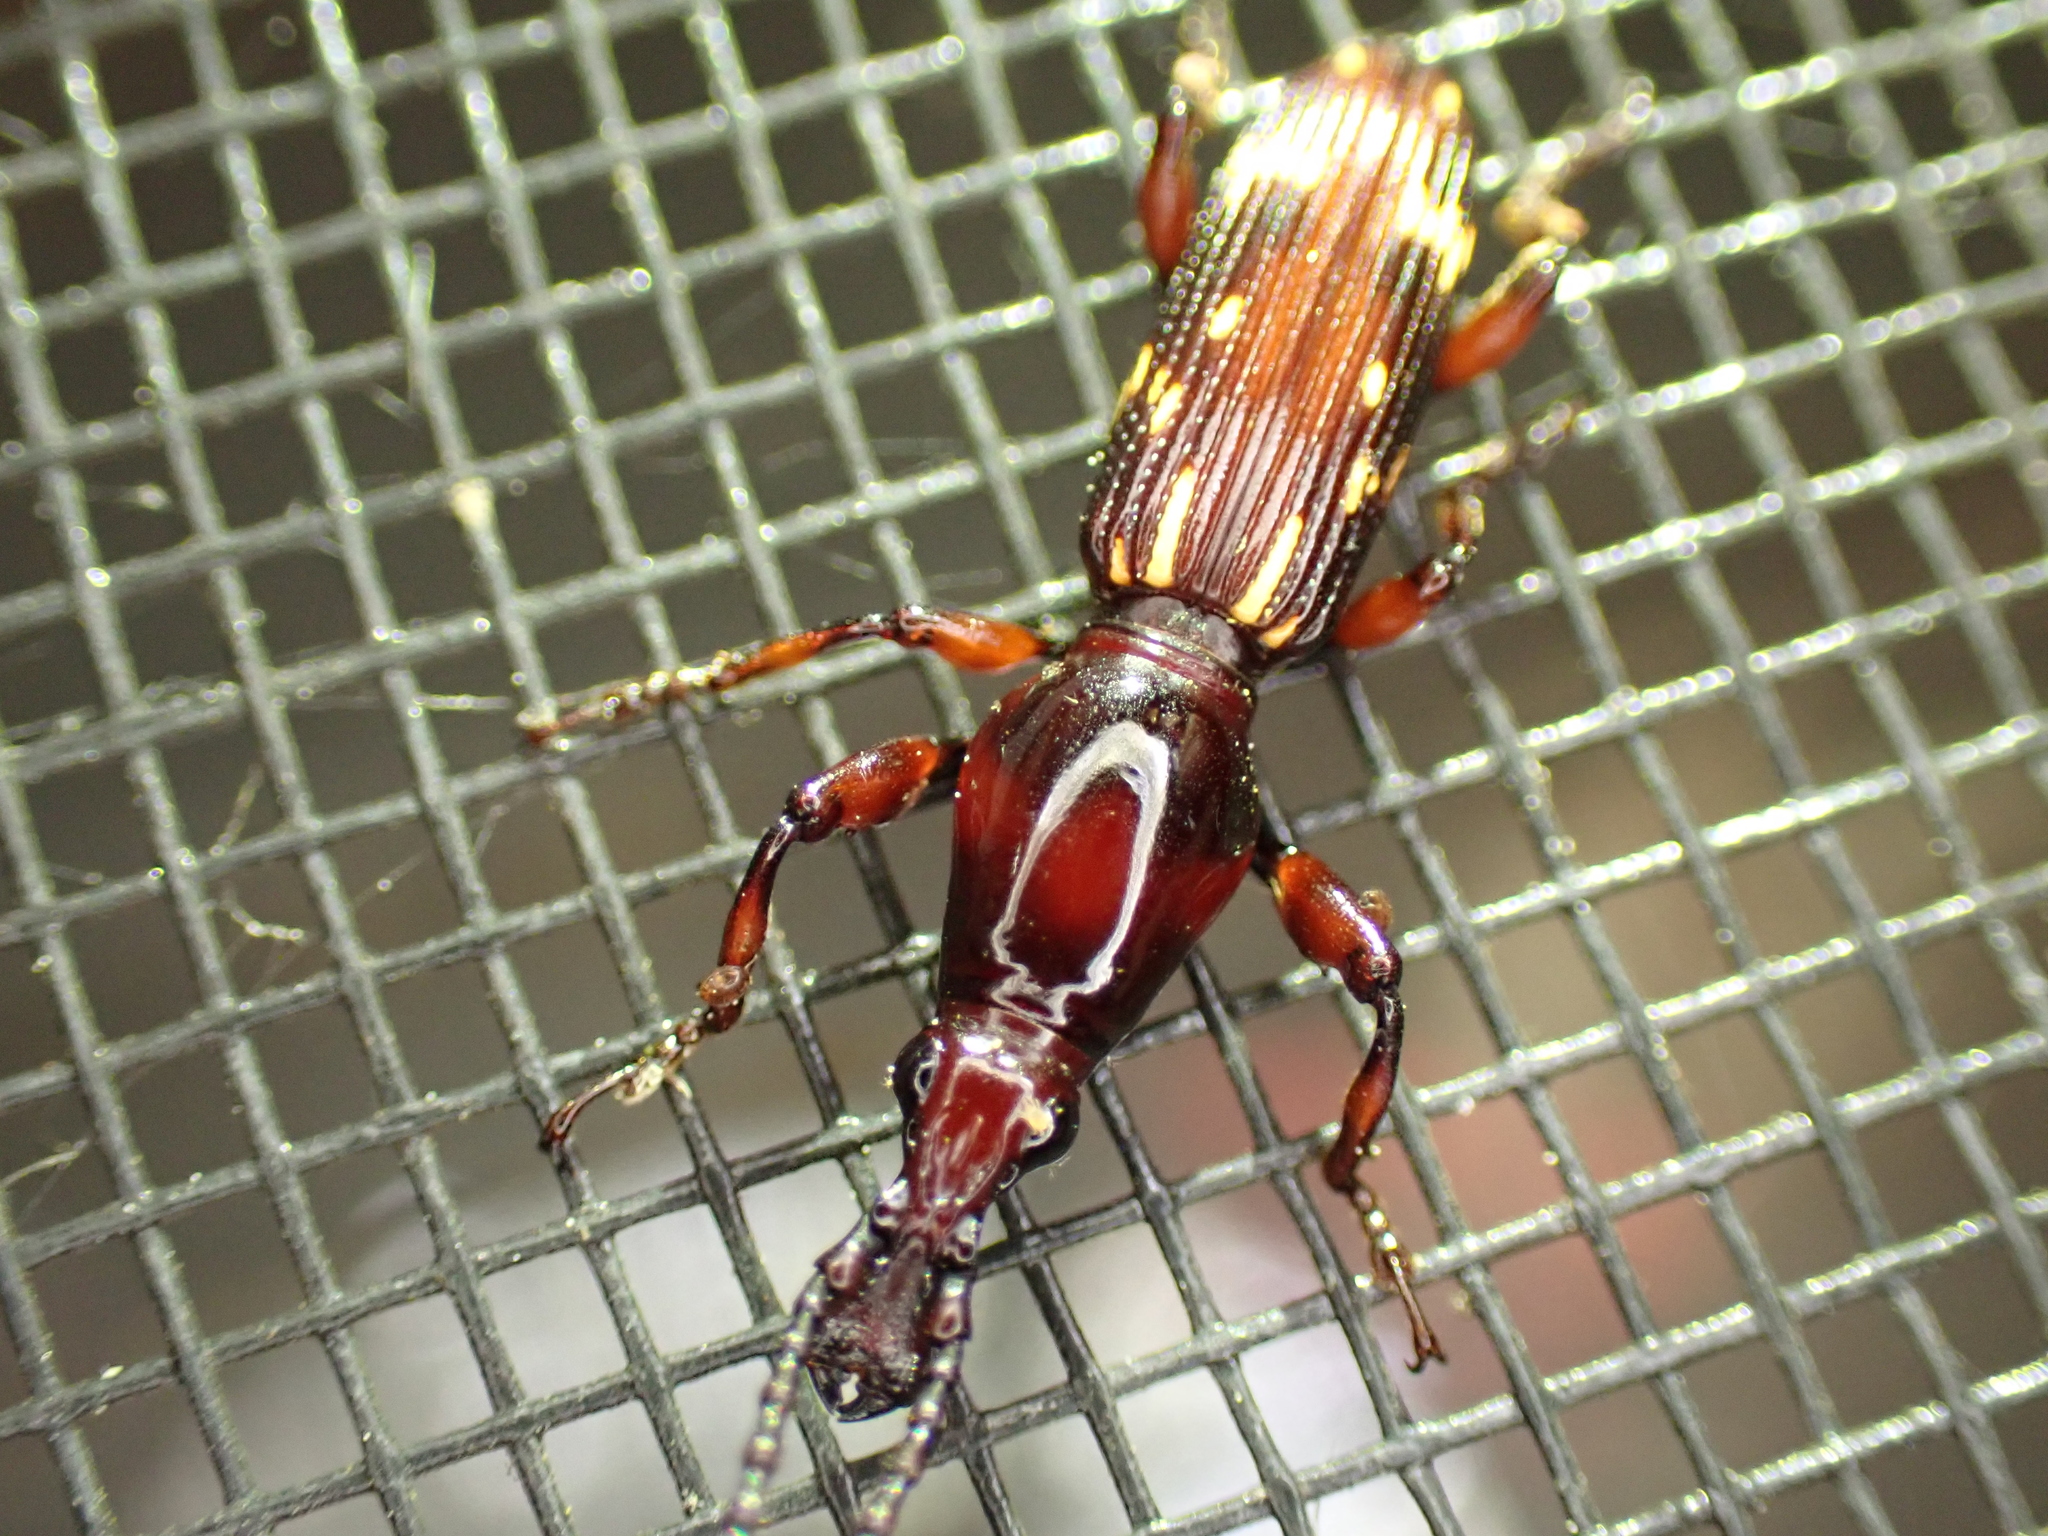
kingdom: Animalia
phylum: Arthropoda
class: Insecta
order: Coleoptera
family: Brentidae
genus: Arrenodes
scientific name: Arrenodes minutus
